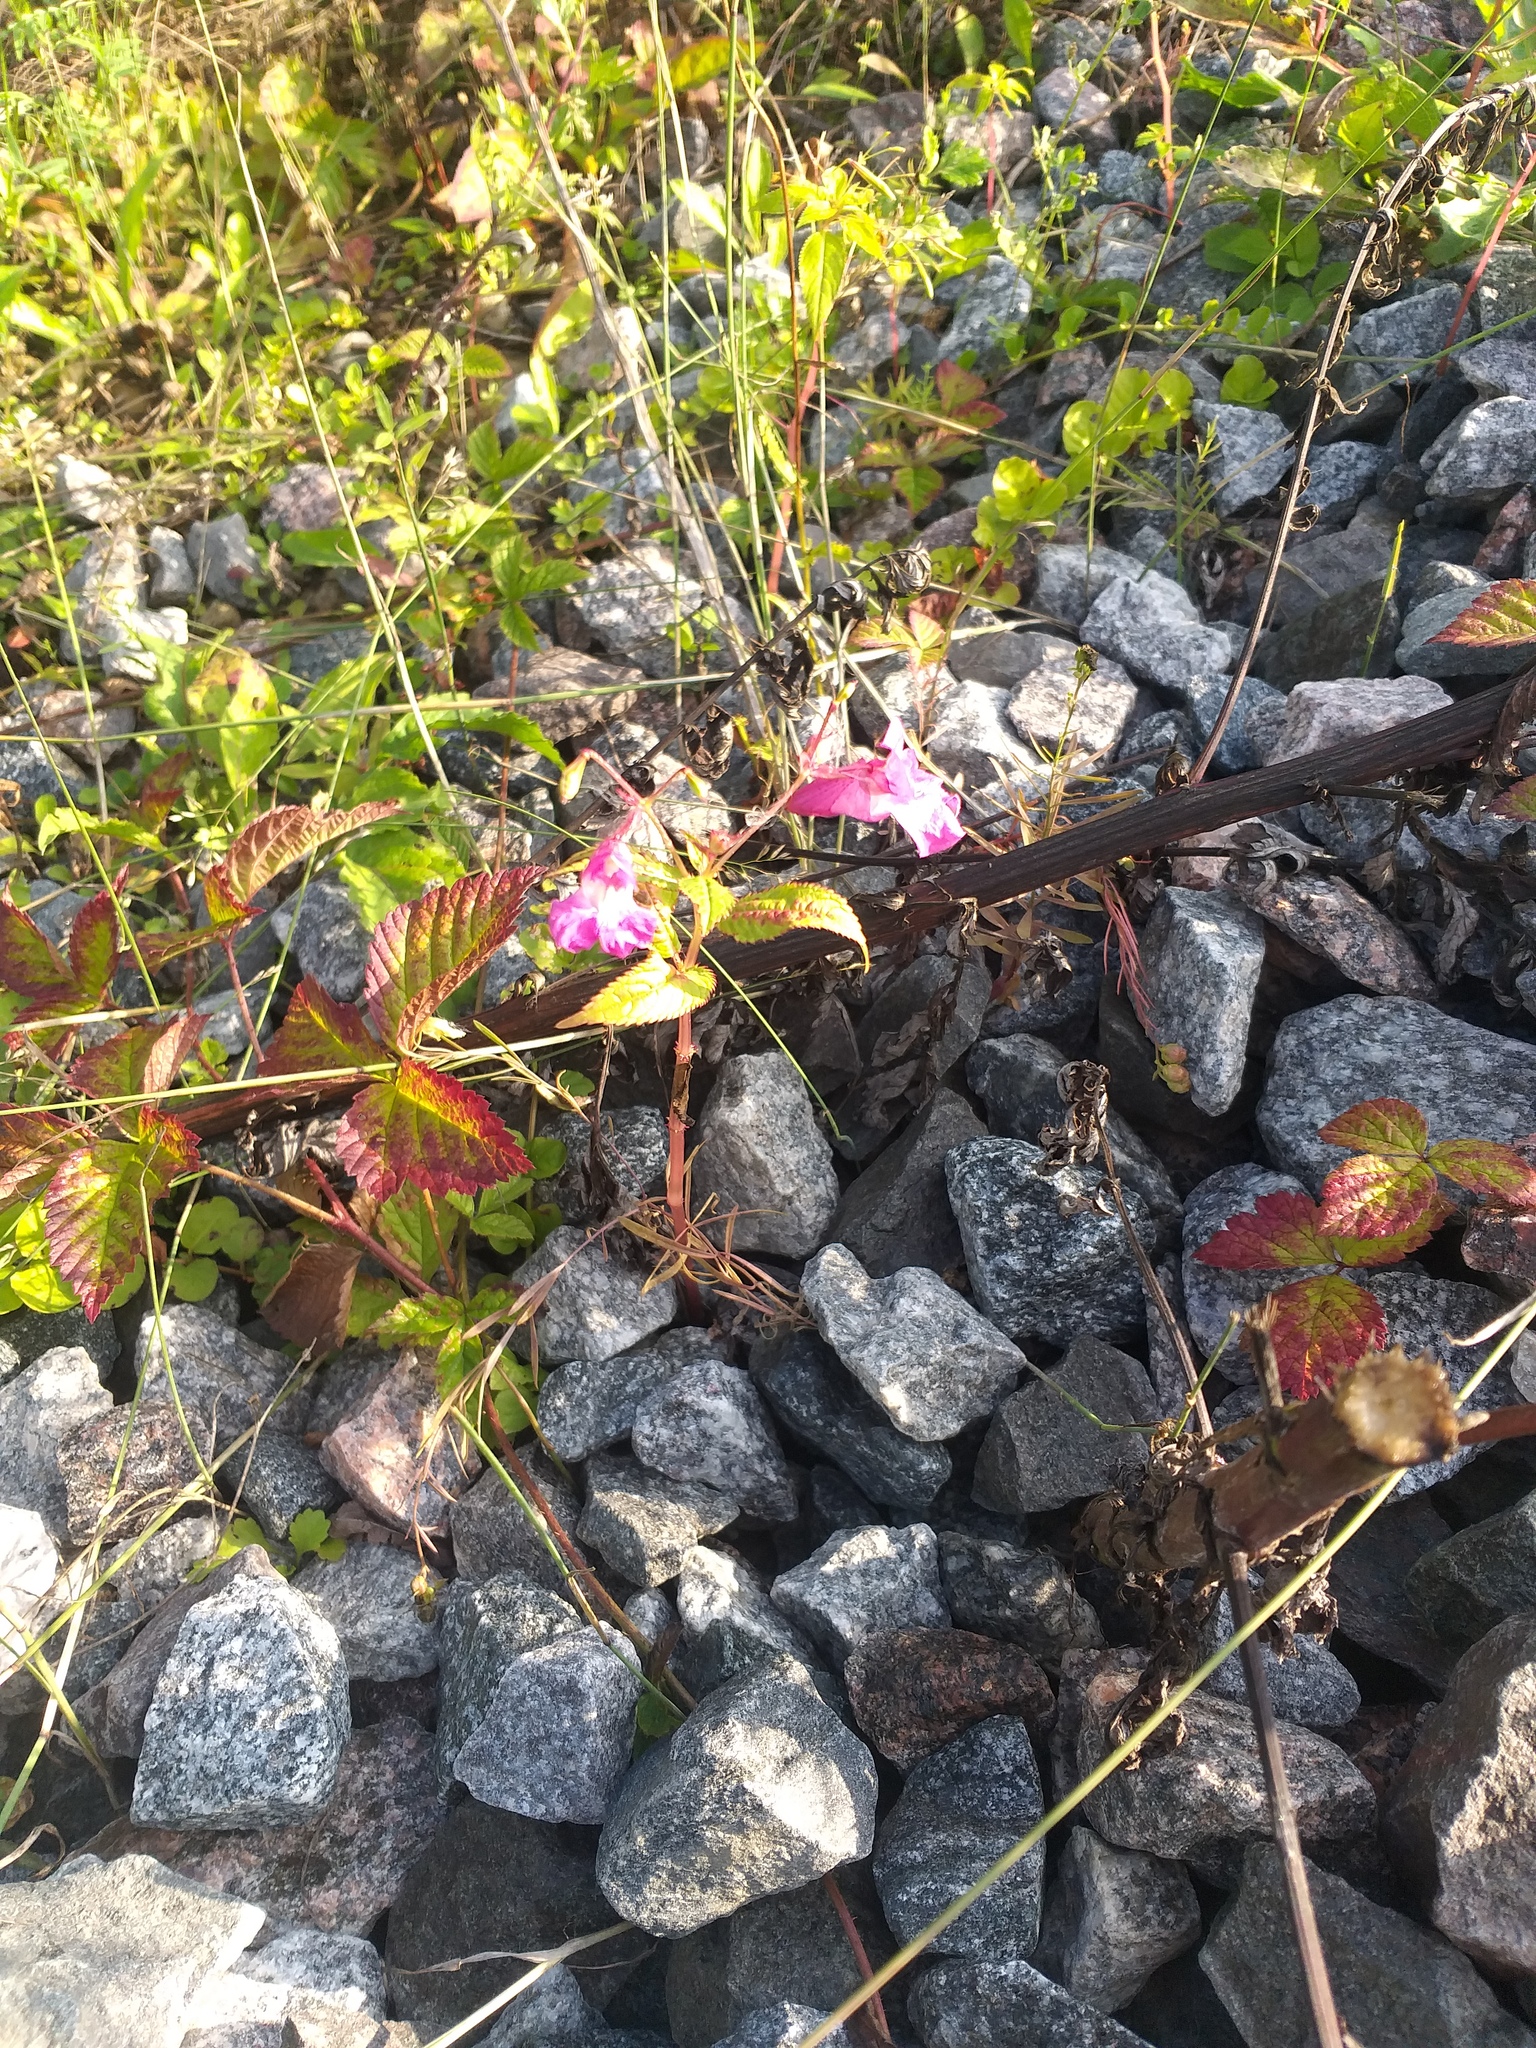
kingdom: Plantae
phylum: Tracheophyta
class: Magnoliopsida
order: Ericales
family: Balsaminaceae
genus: Impatiens
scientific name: Impatiens glandulifera
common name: Himalayan balsam
